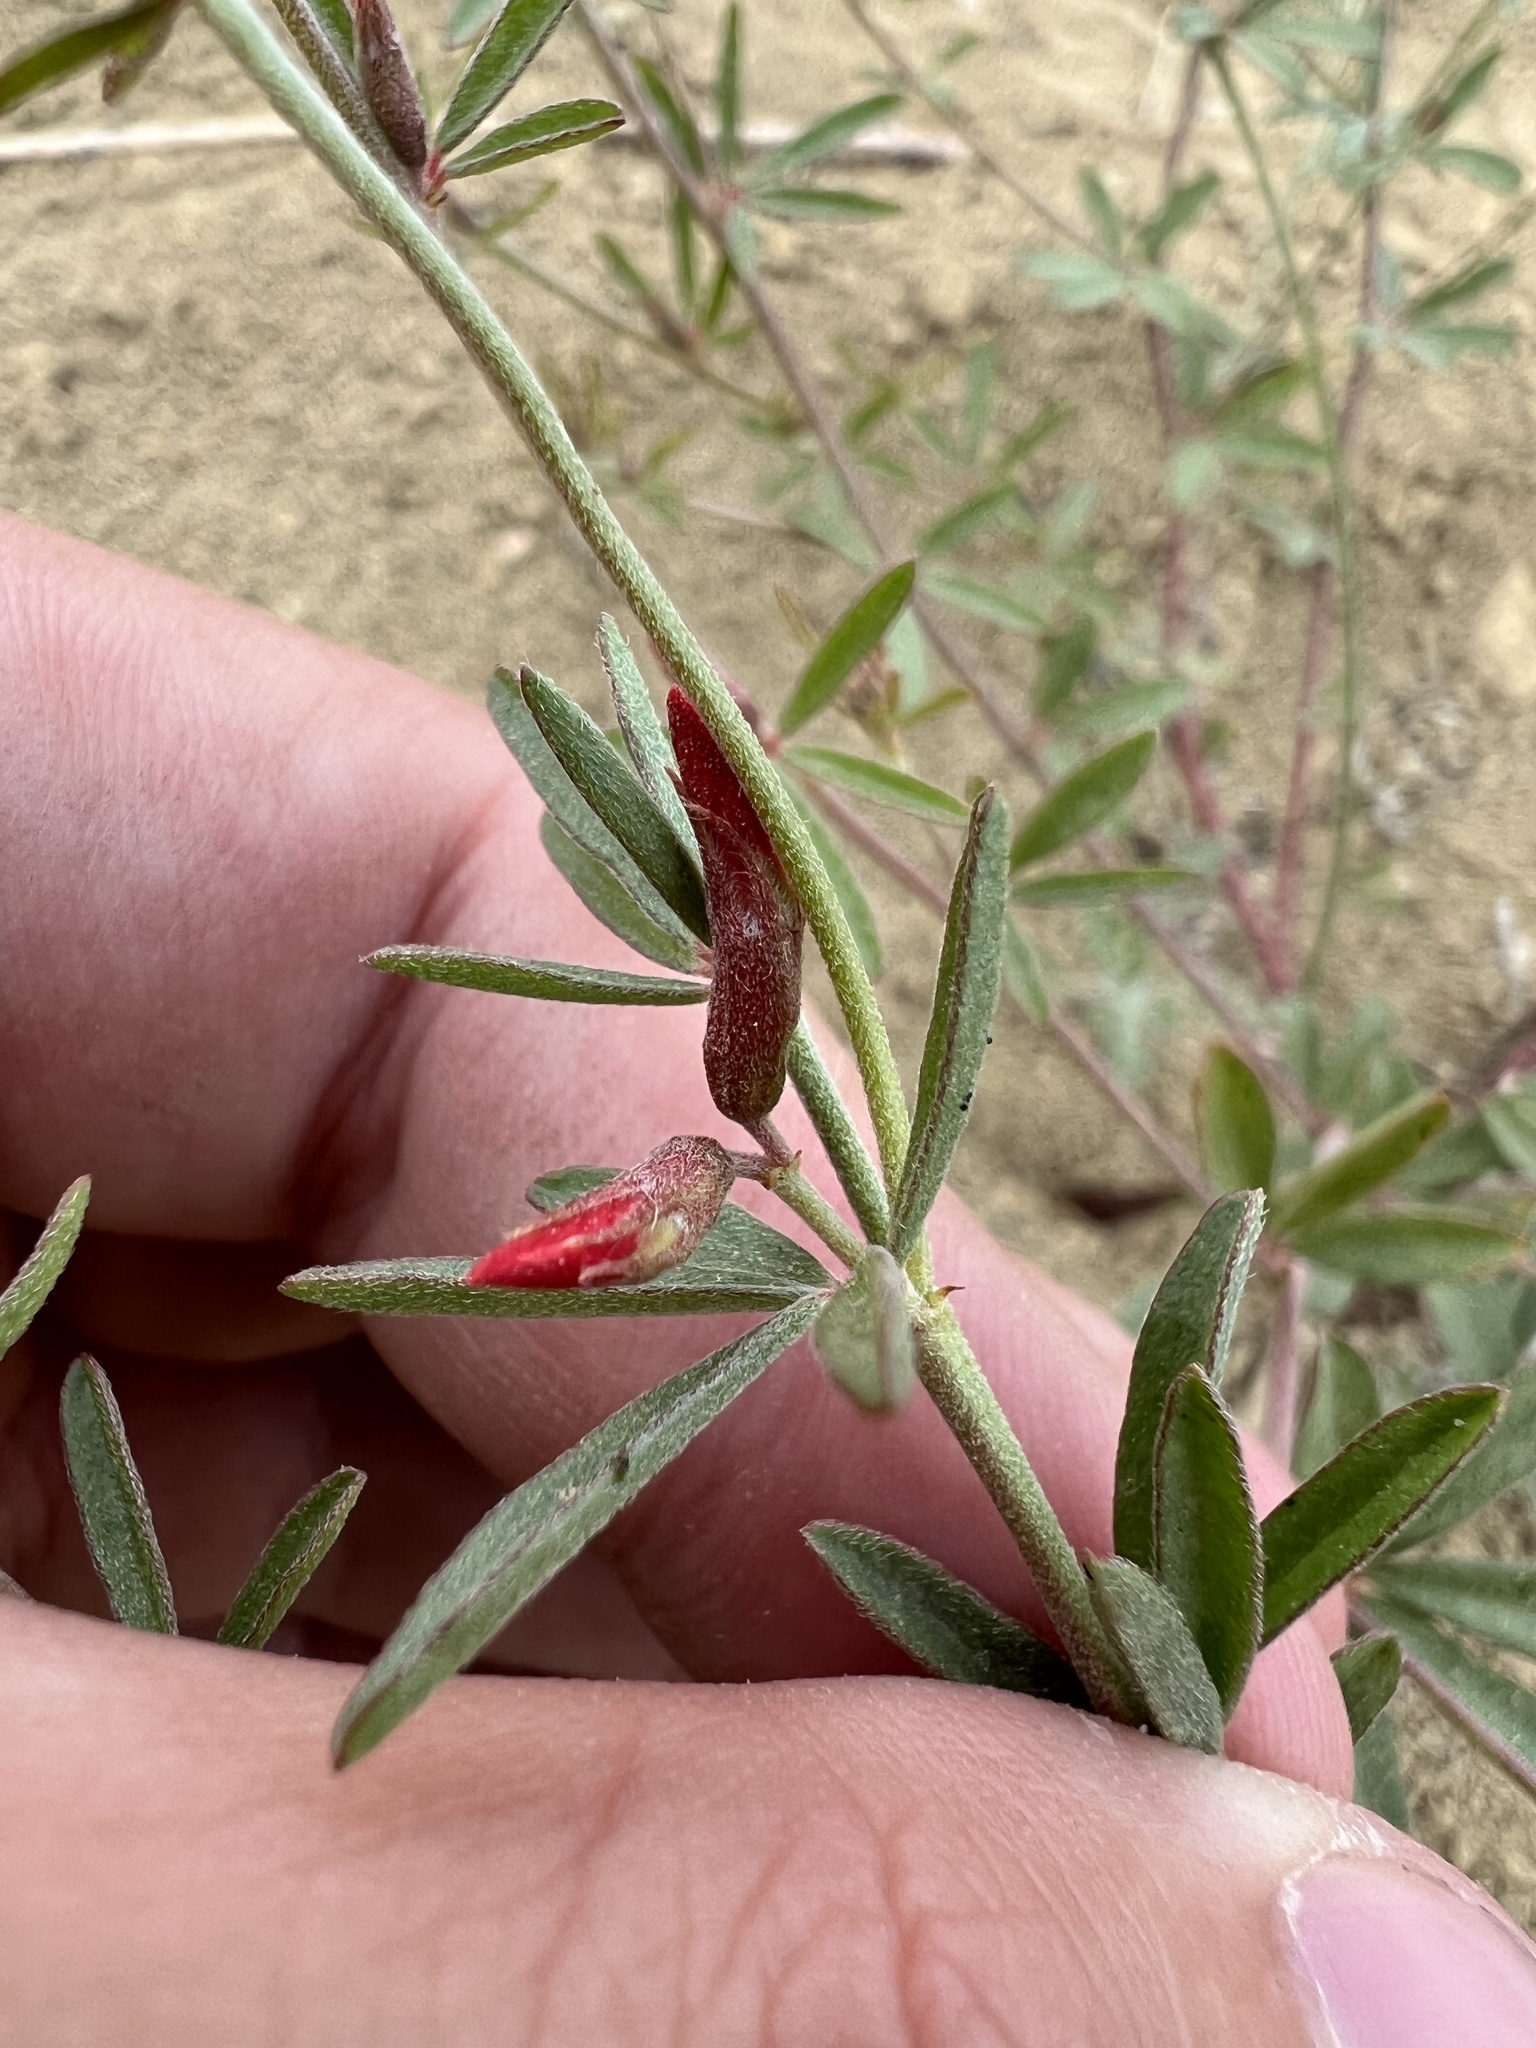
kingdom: Plantae
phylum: Tracheophyta
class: Magnoliopsida
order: Fabales
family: Fabaceae
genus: Acmispon
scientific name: Acmispon wrightii
